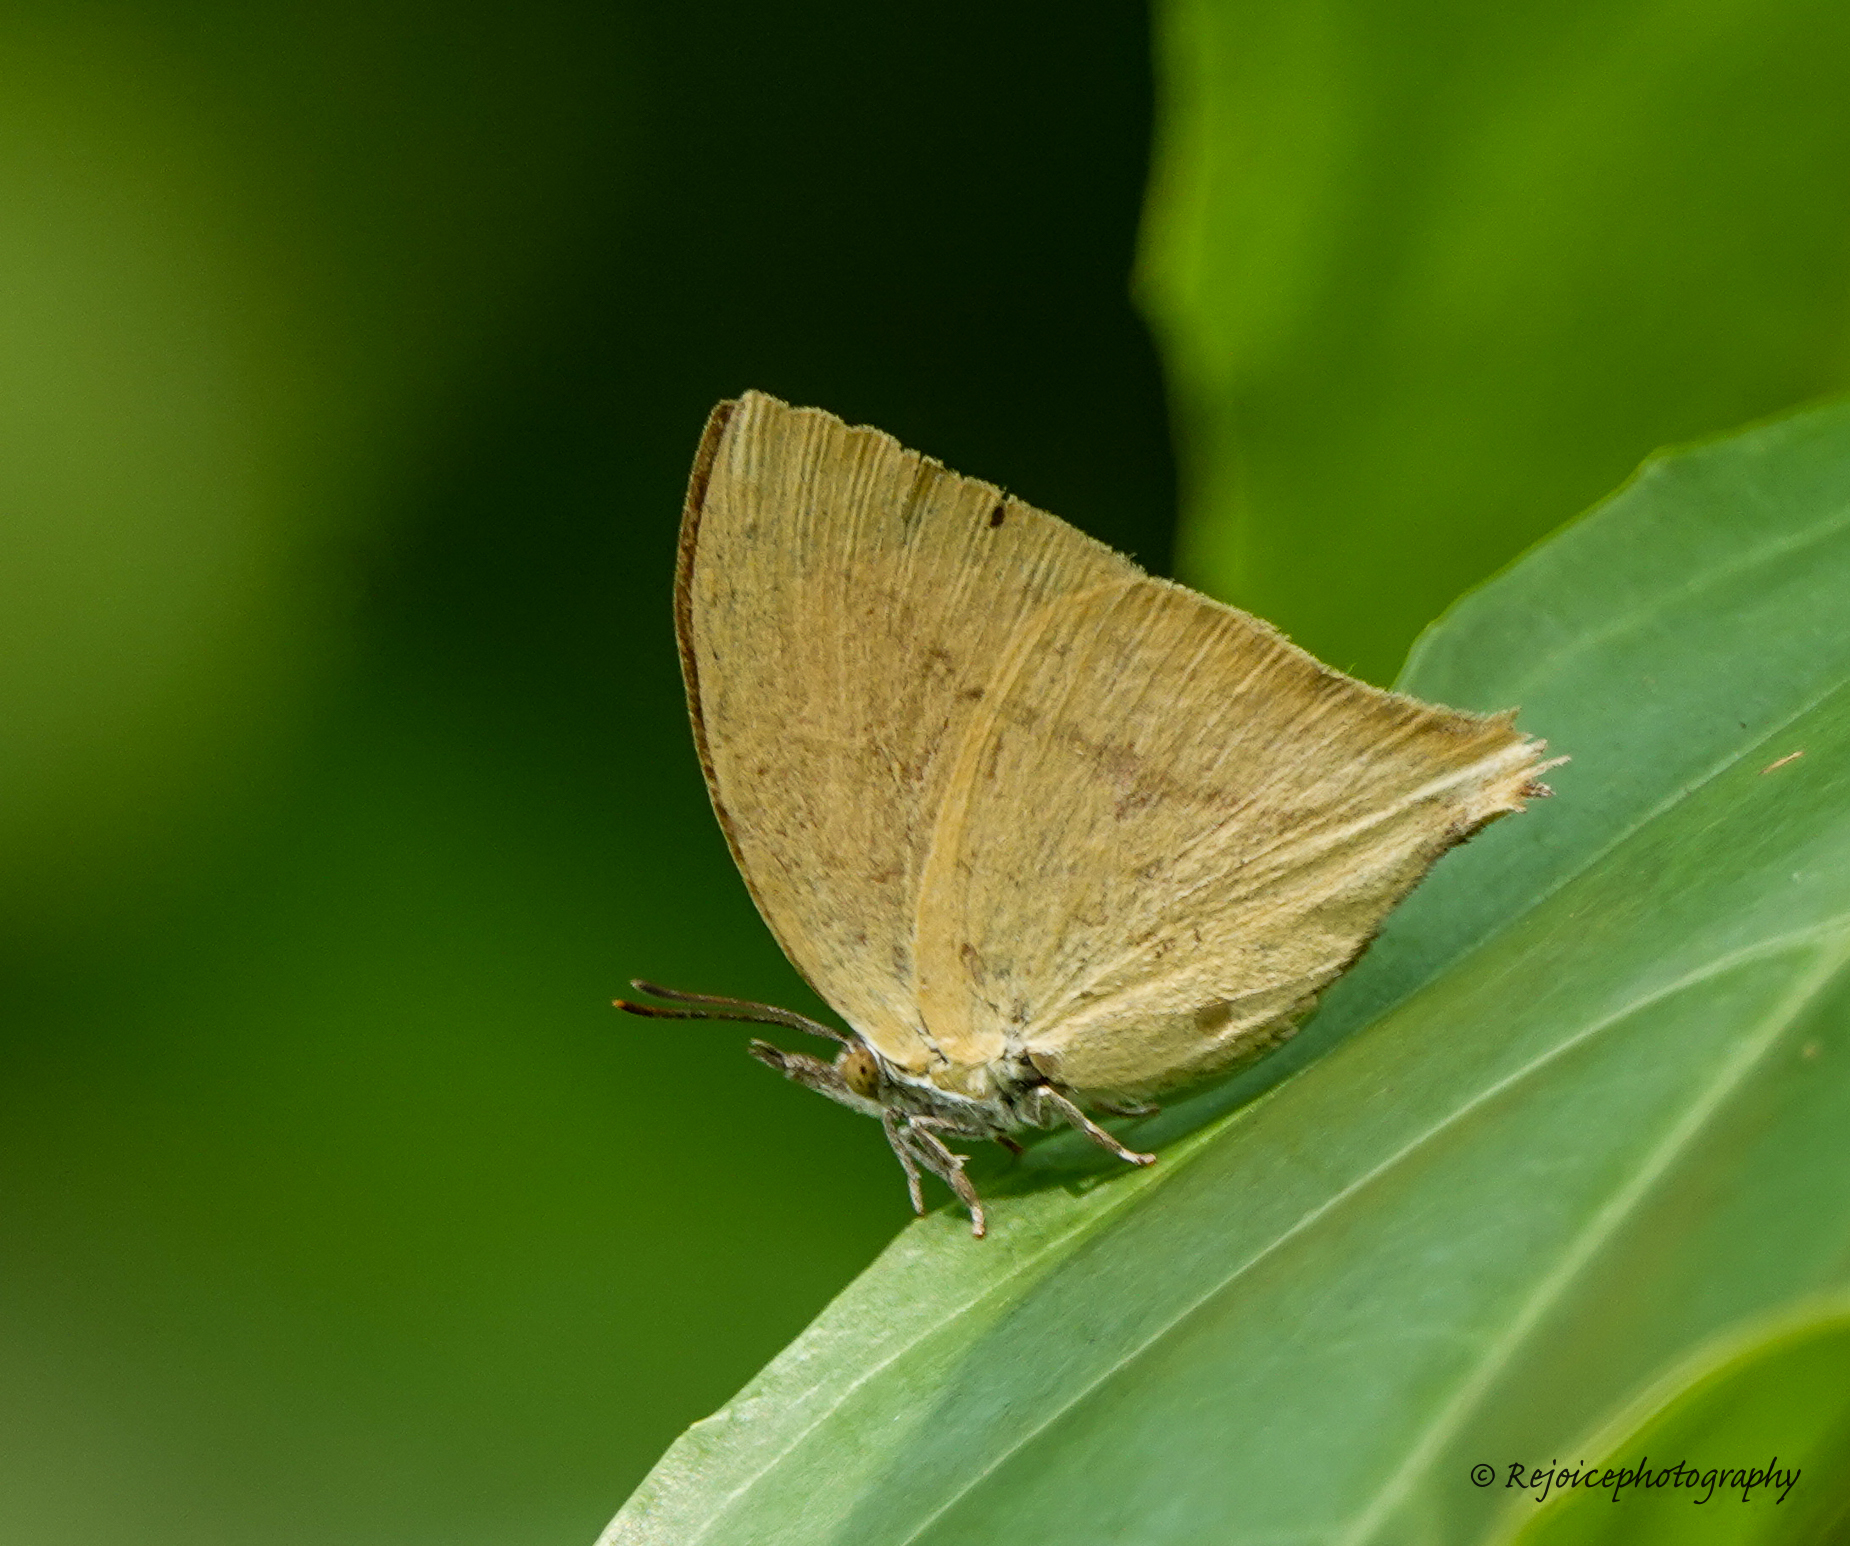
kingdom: Animalia
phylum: Arthropoda
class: Insecta
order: Lepidoptera
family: Lycaenidae
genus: Loxura
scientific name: Loxura atymnus
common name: Common yamfly
